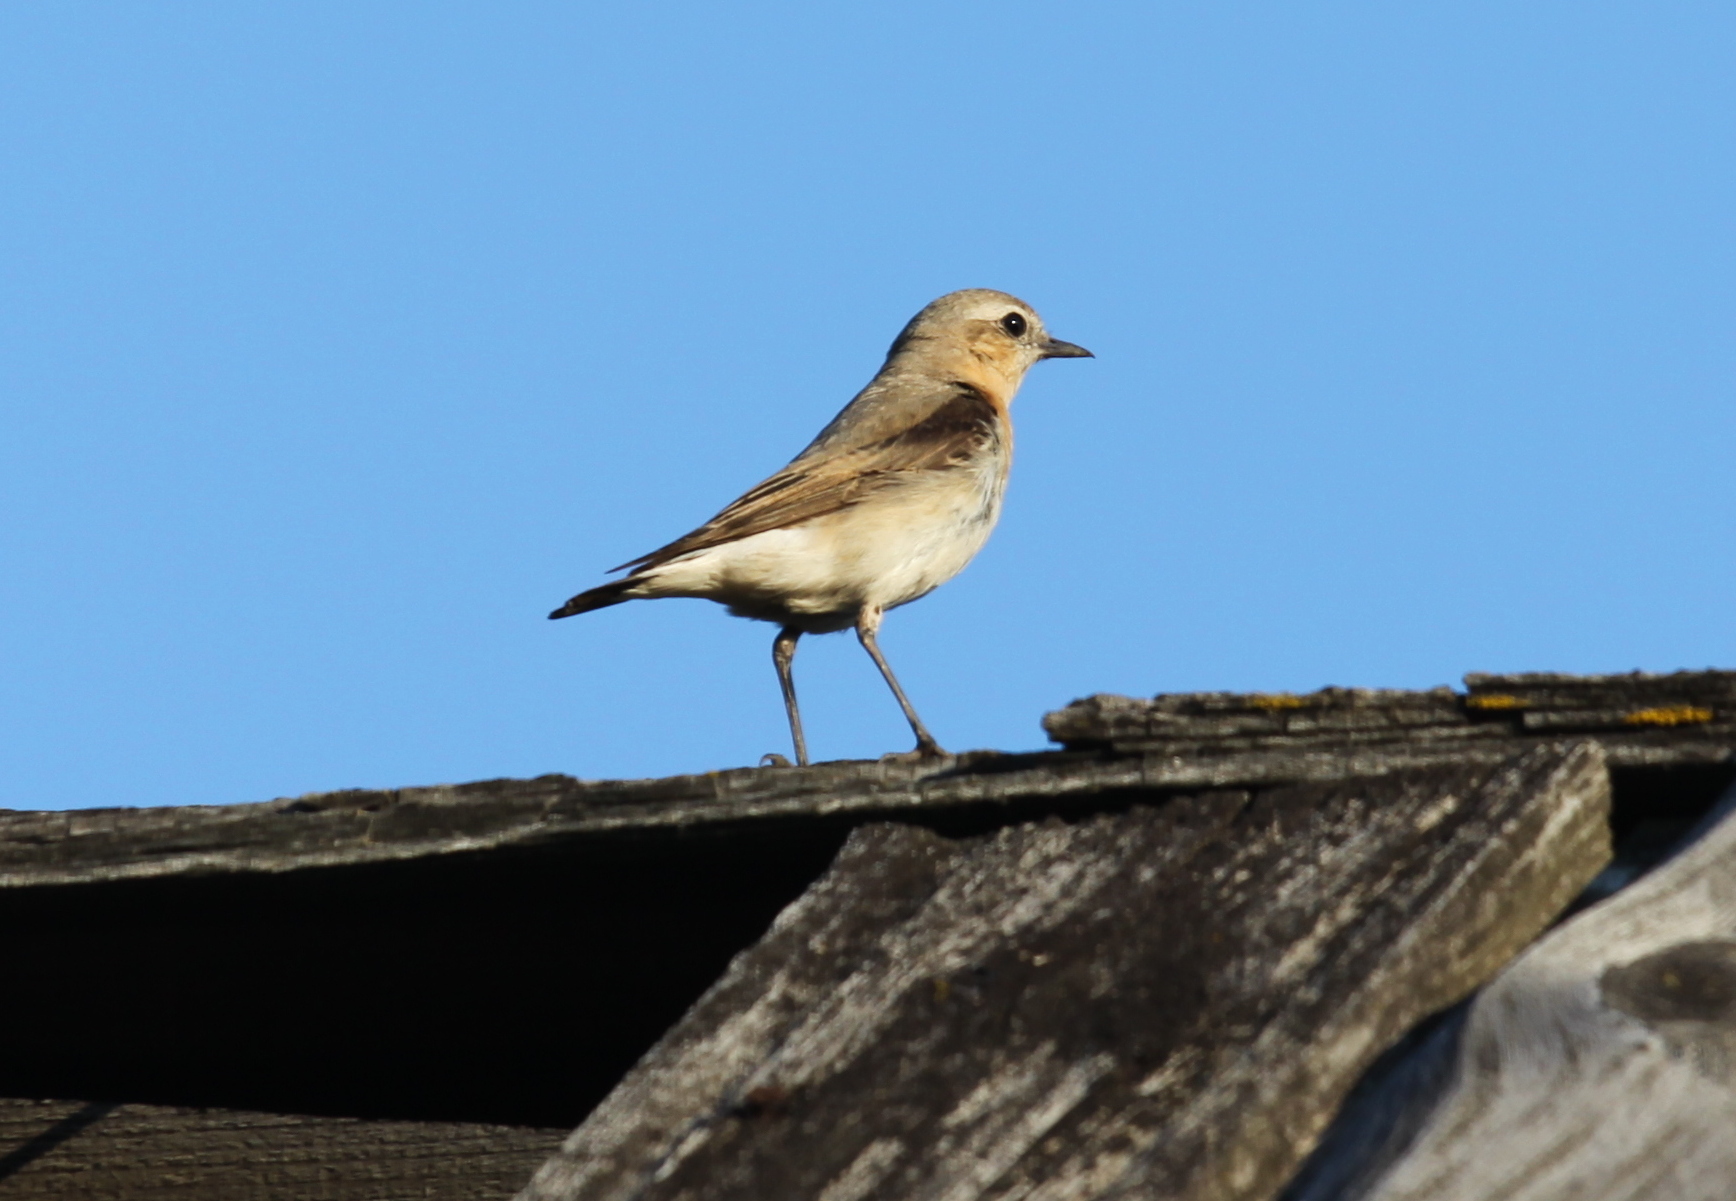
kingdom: Animalia
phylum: Chordata
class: Aves
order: Passeriformes
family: Muscicapidae
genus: Oenanthe
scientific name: Oenanthe oenanthe
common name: Northern wheatear
